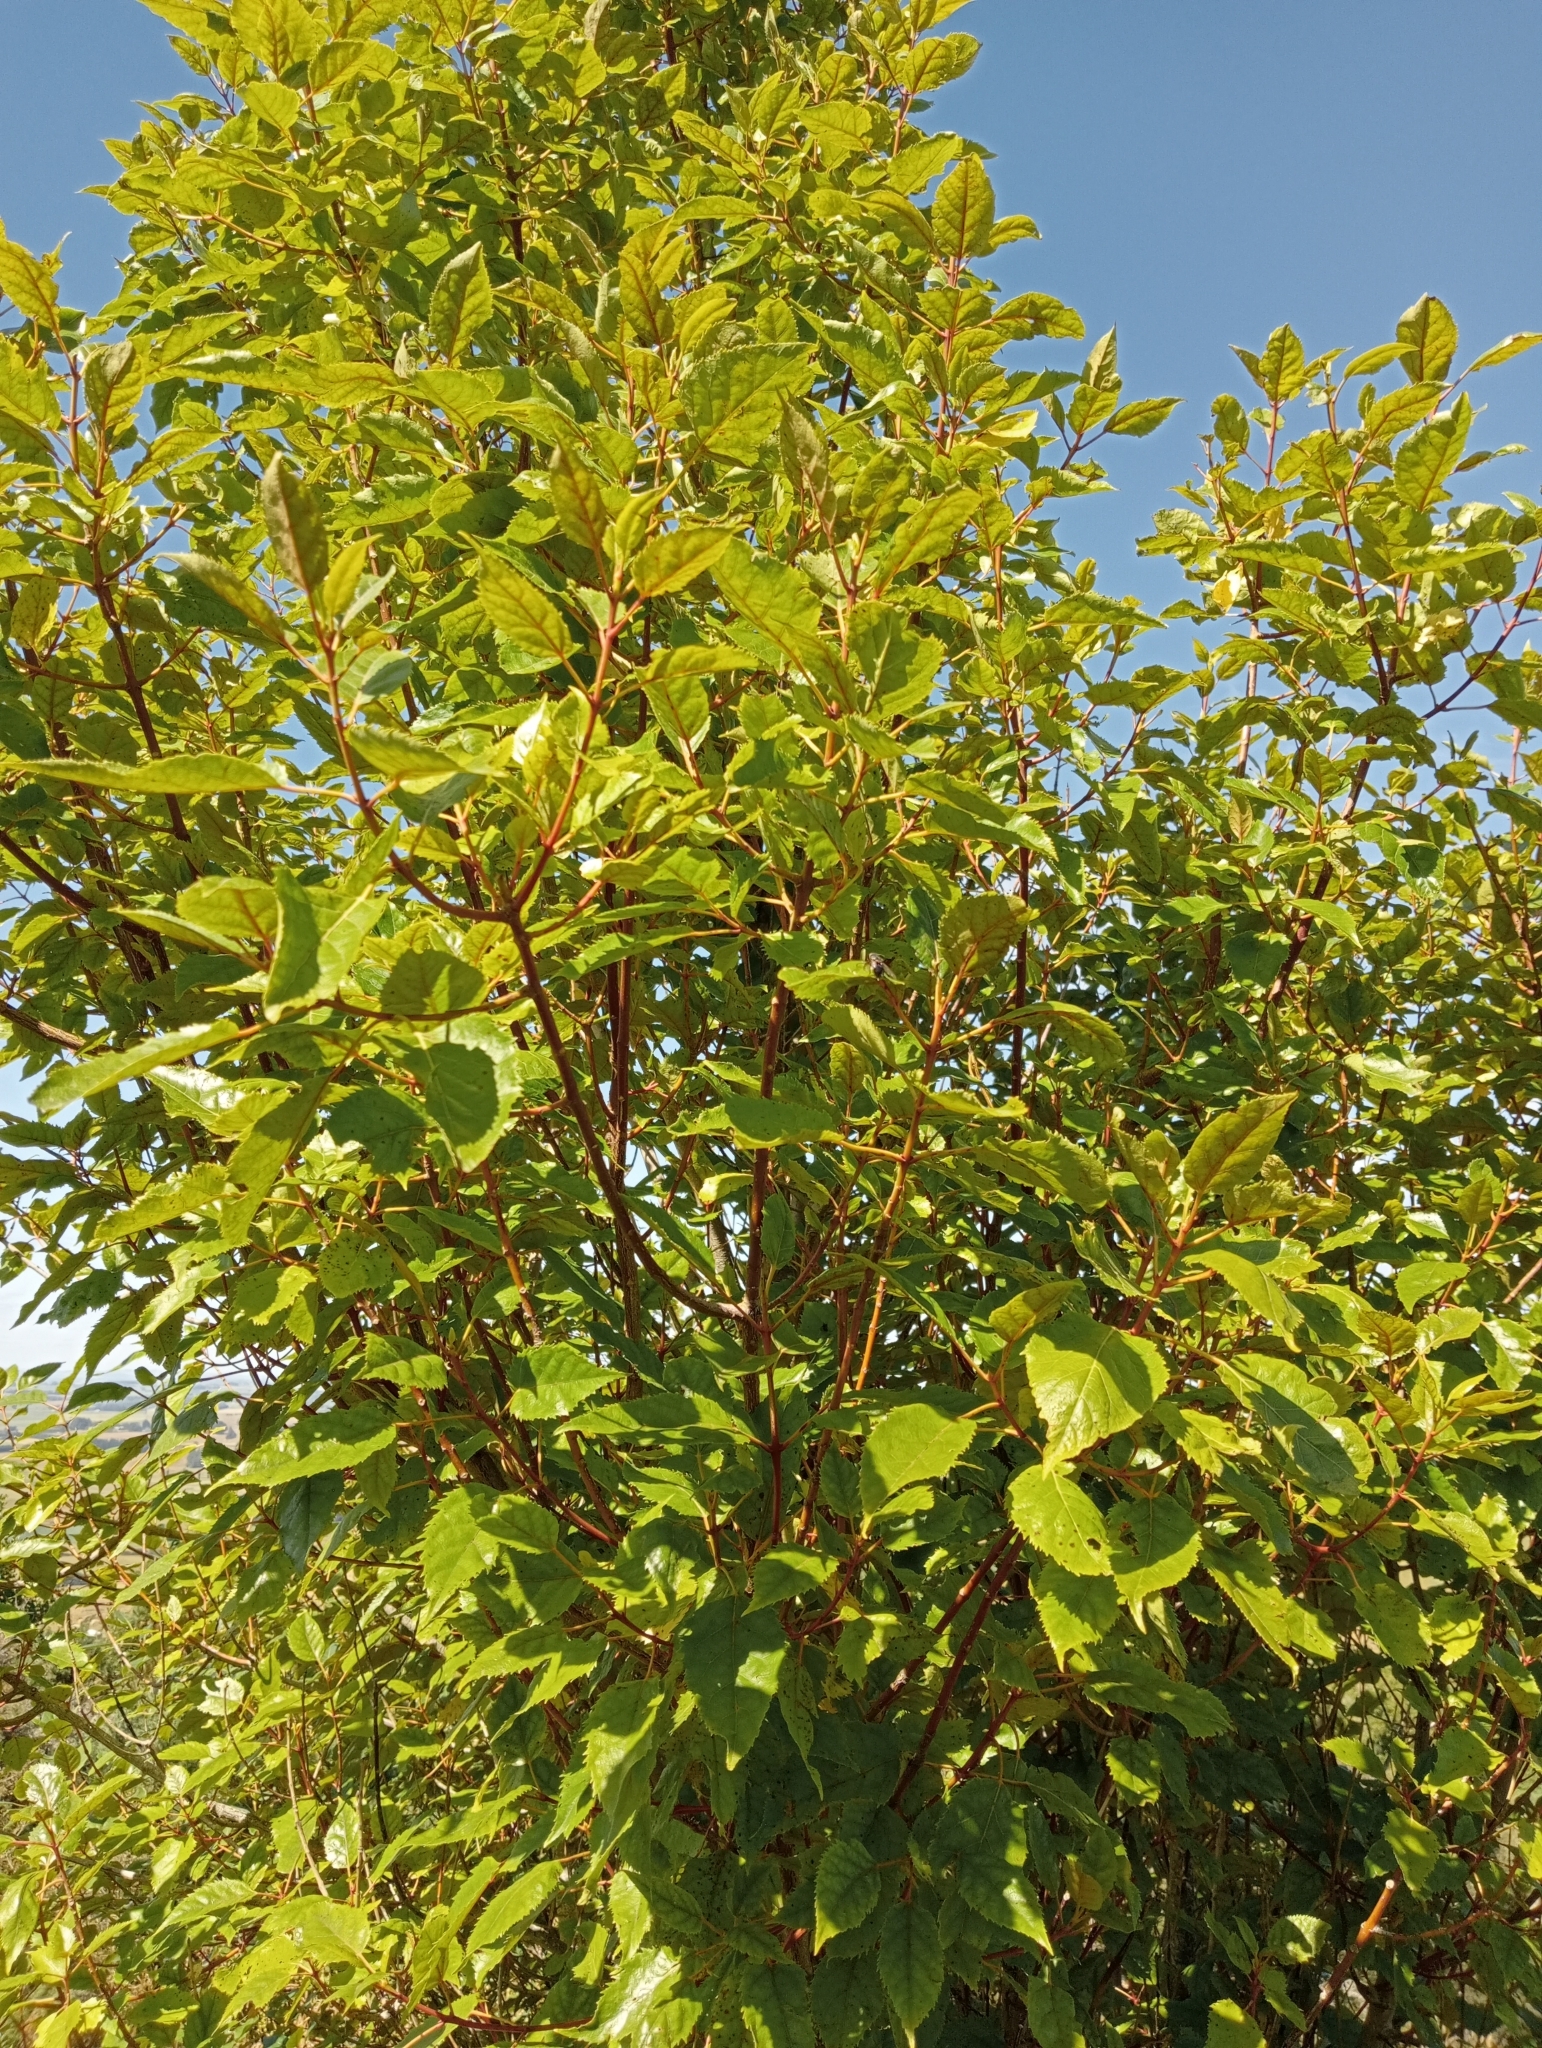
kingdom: Plantae
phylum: Tracheophyta
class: Magnoliopsida
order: Oxalidales
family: Elaeocarpaceae
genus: Aristotelia
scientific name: Aristotelia serrata
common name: New zealand wineberry
